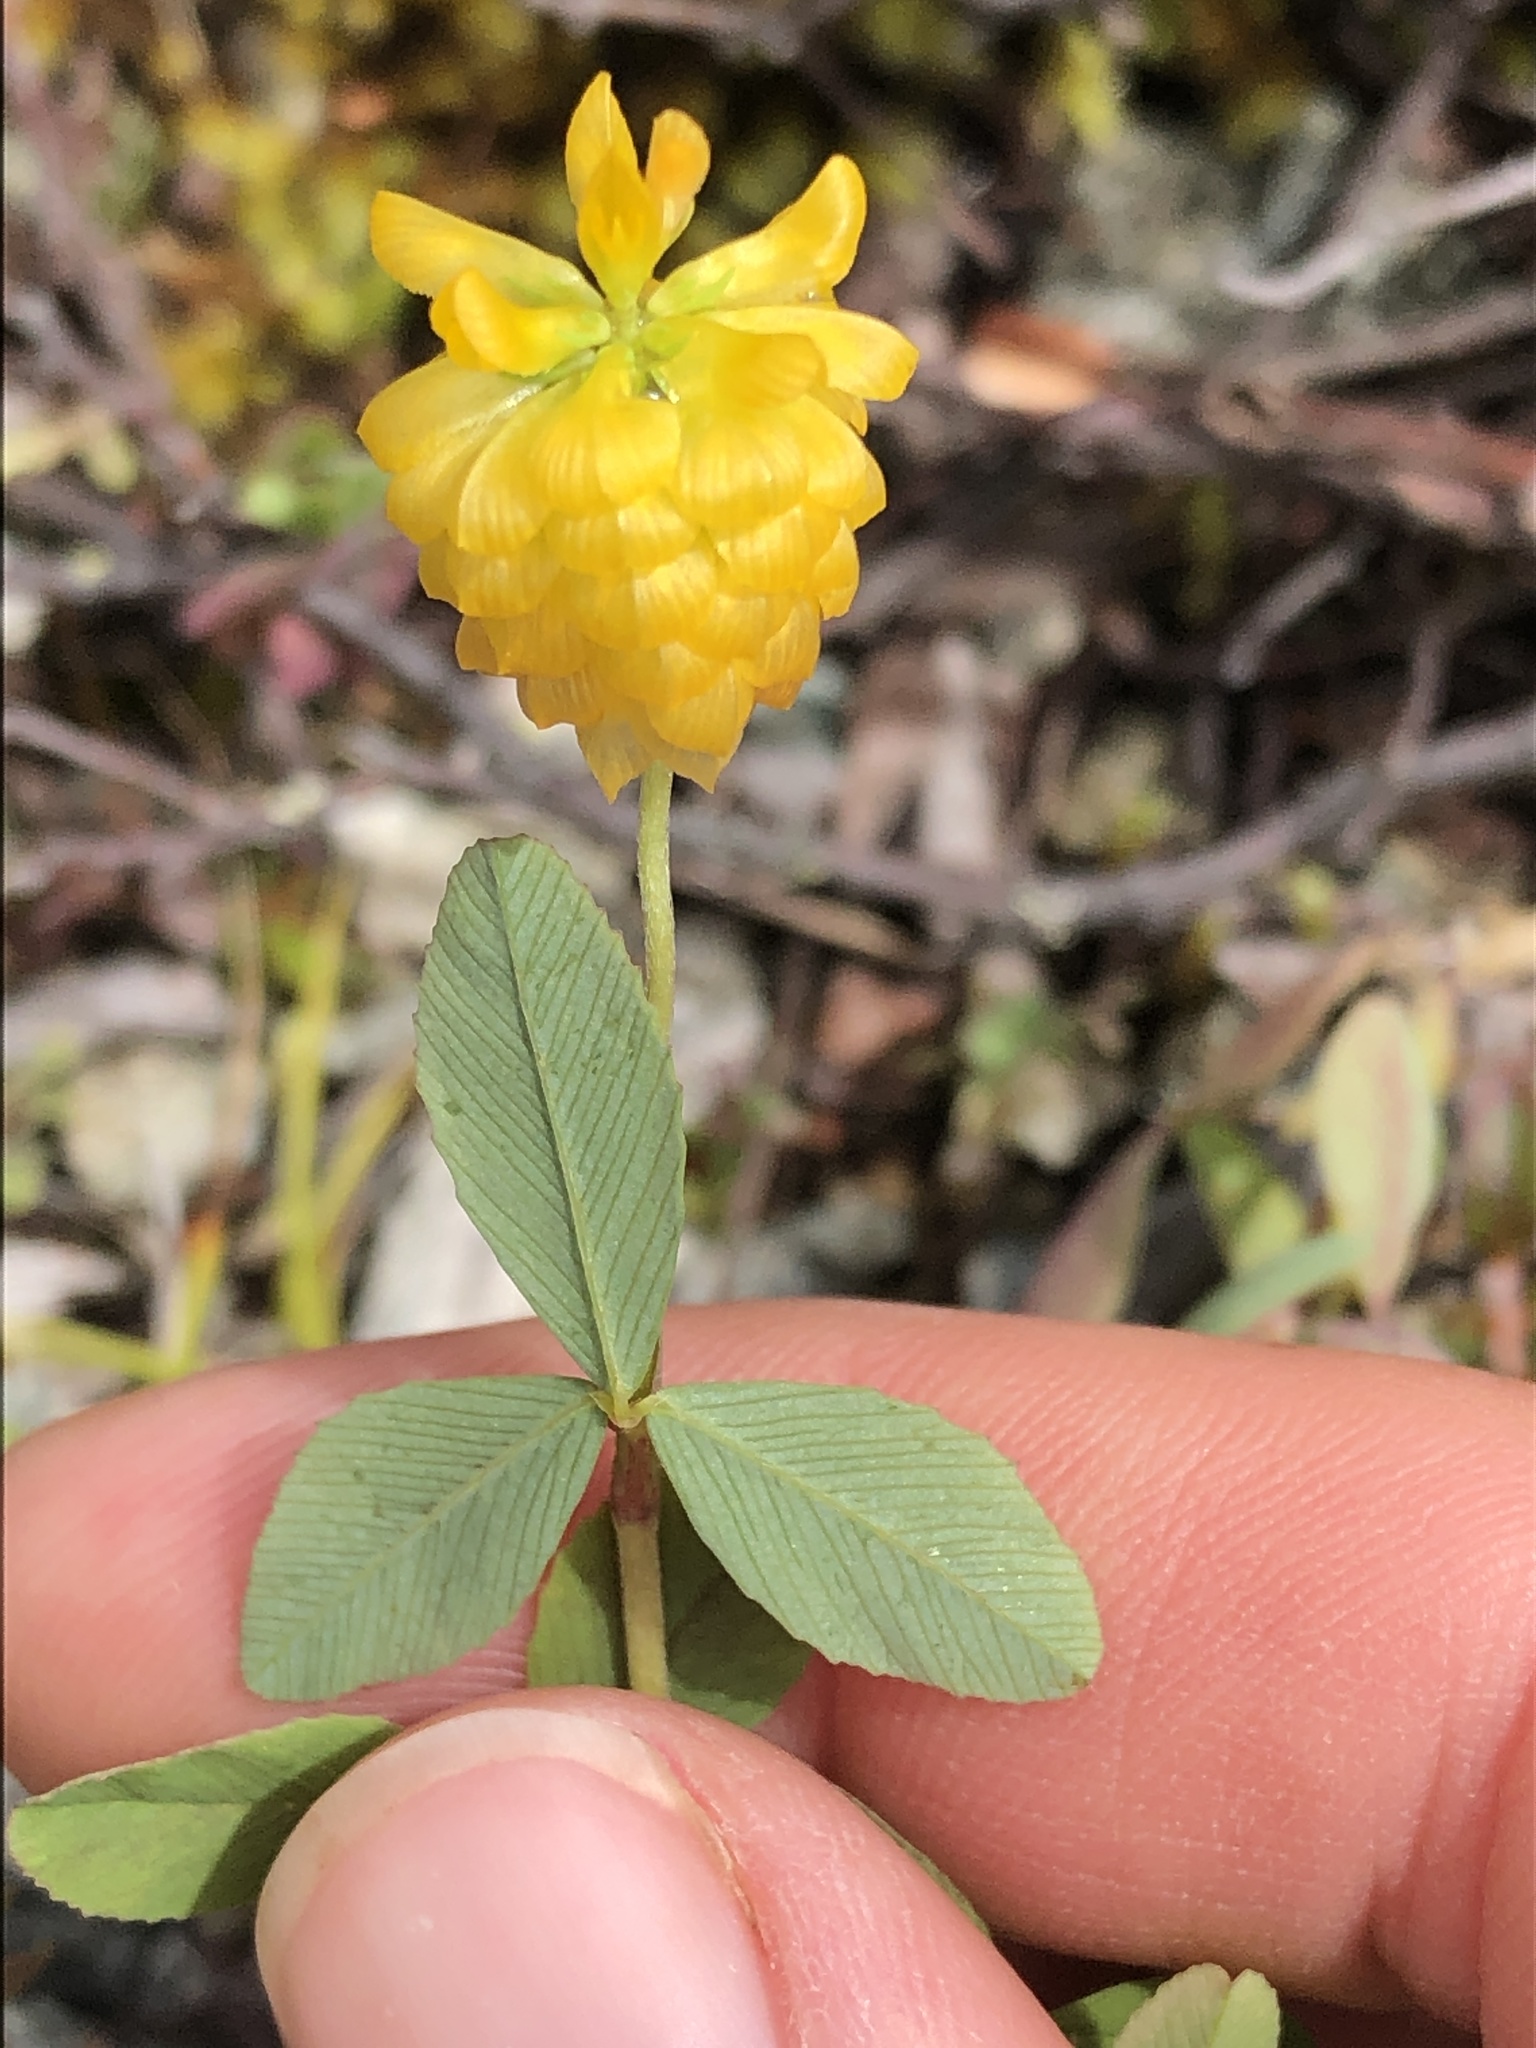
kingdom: Plantae
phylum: Tracheophyta
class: Magnoliopsida
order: Fabales
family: Fabaceae
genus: Trifolium
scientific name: Trifolium aureum
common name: Golden clover
